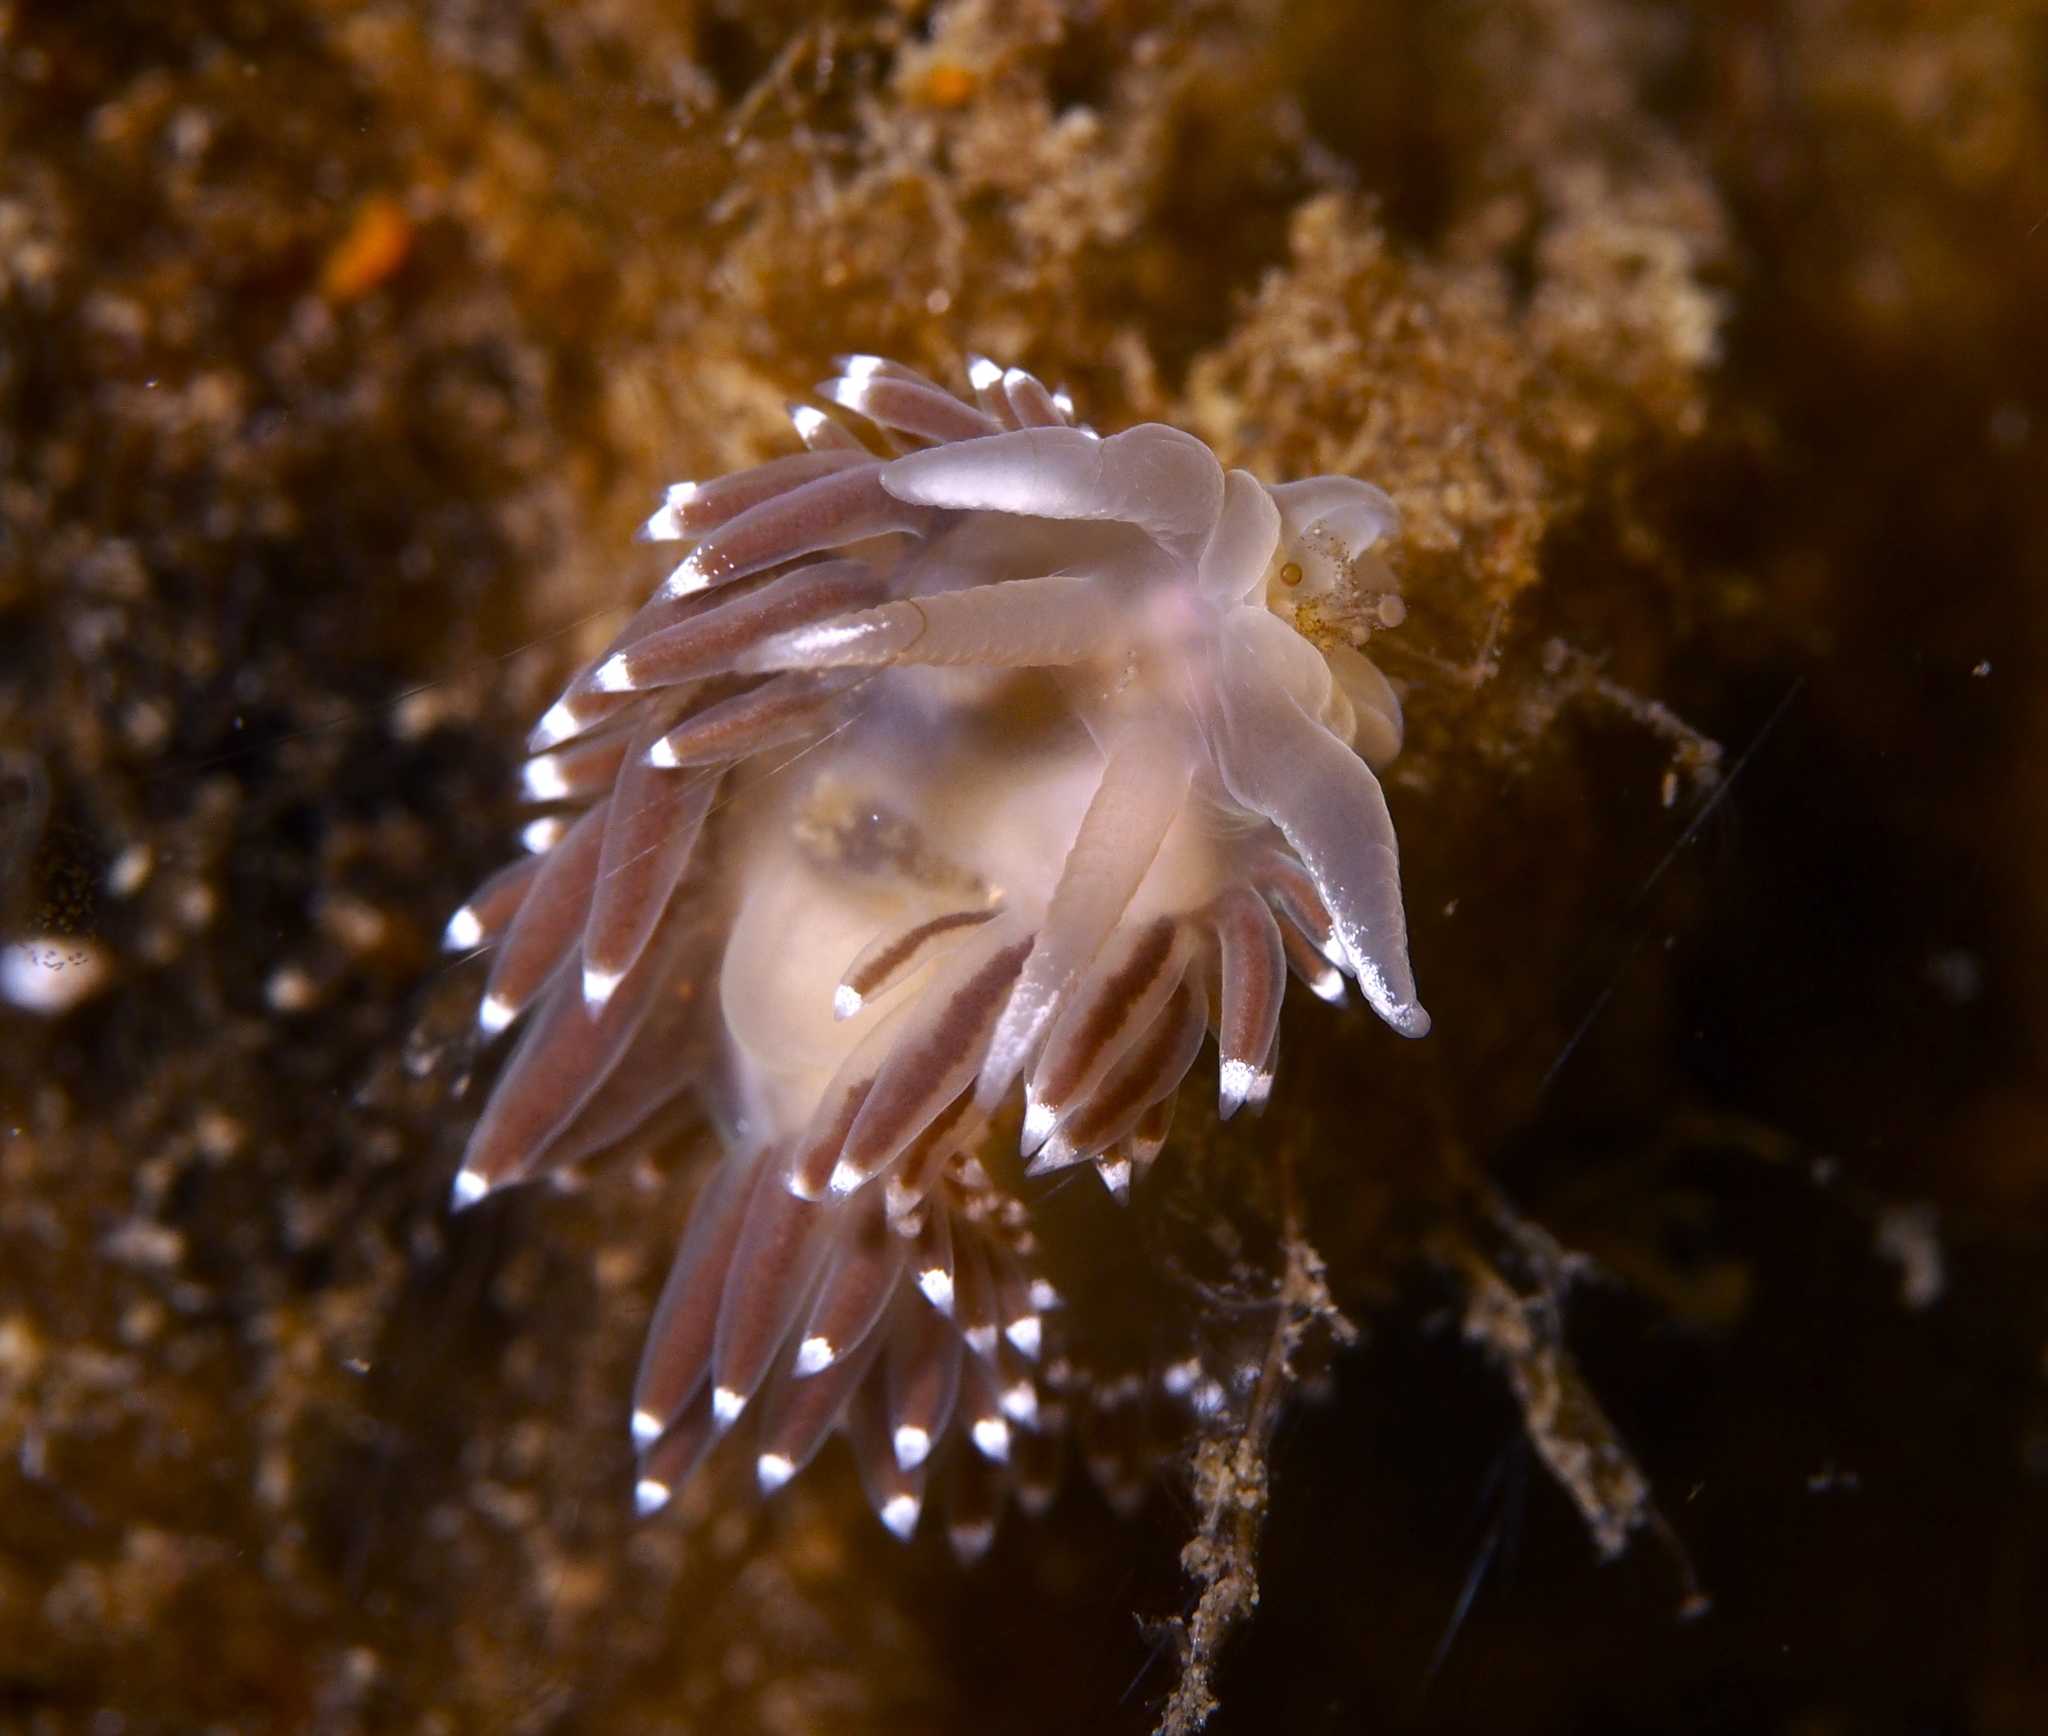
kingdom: Animalia
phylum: Mollusca
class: Gastropoda
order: Nudibranchia
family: Coryphellidae
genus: Coryphella
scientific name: Coryphella verrucosa
